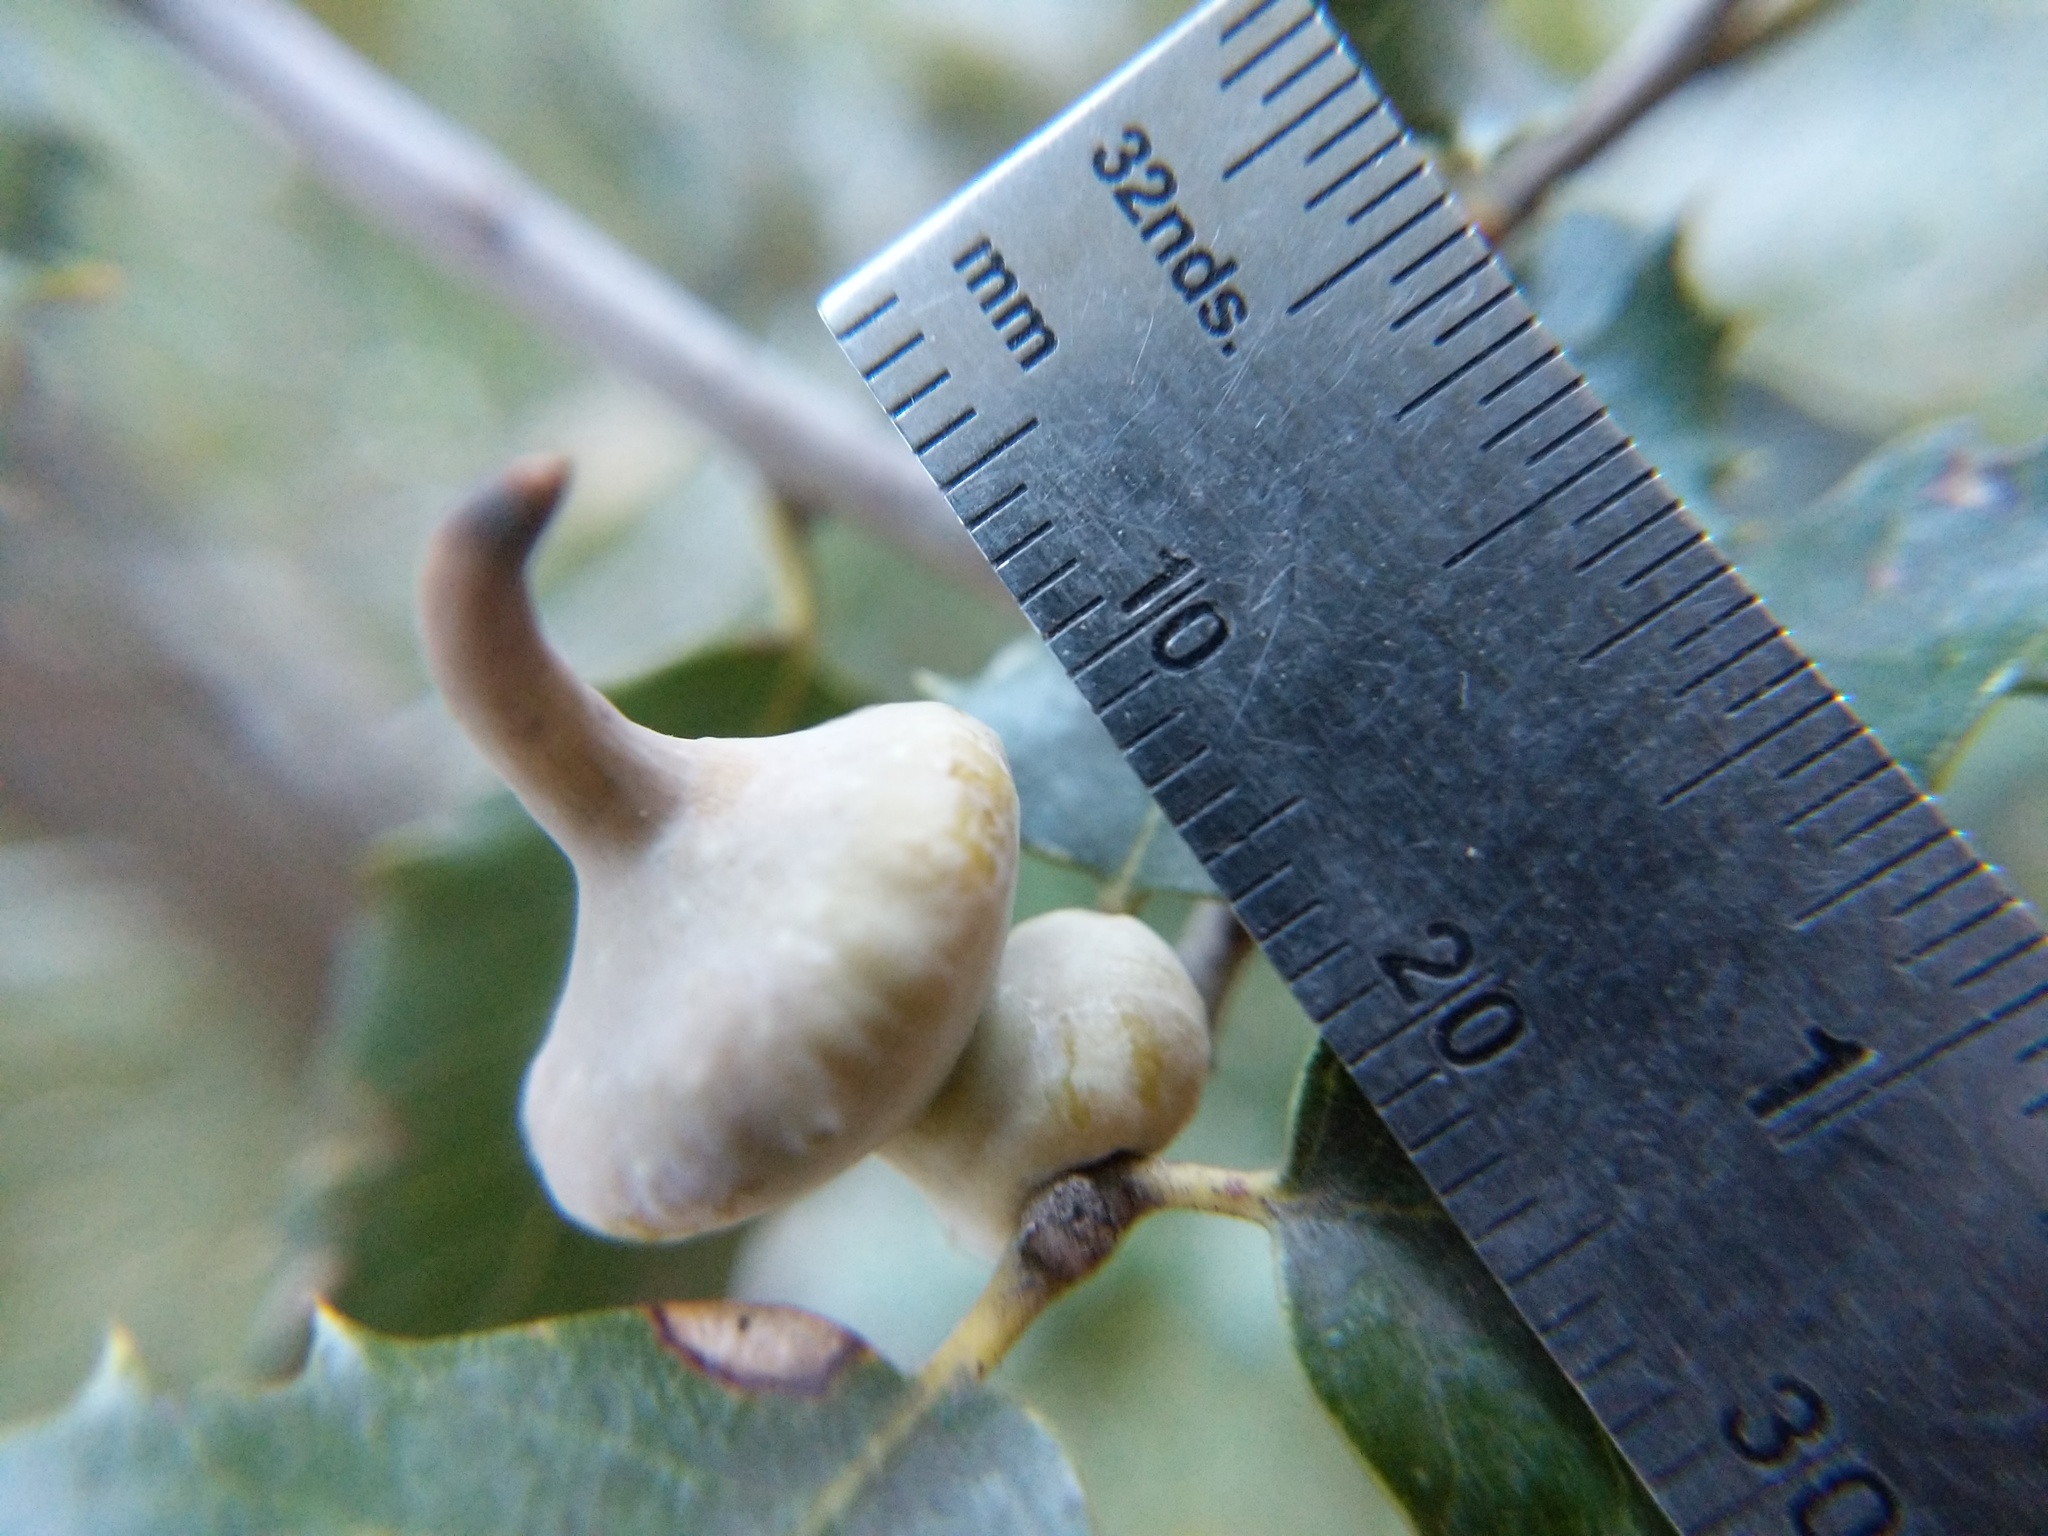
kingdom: Animalia
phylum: Arthropoda
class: Insecta
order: Hymenoptera
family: Cynipidae
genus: Heteroecus
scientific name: Heteroecus
